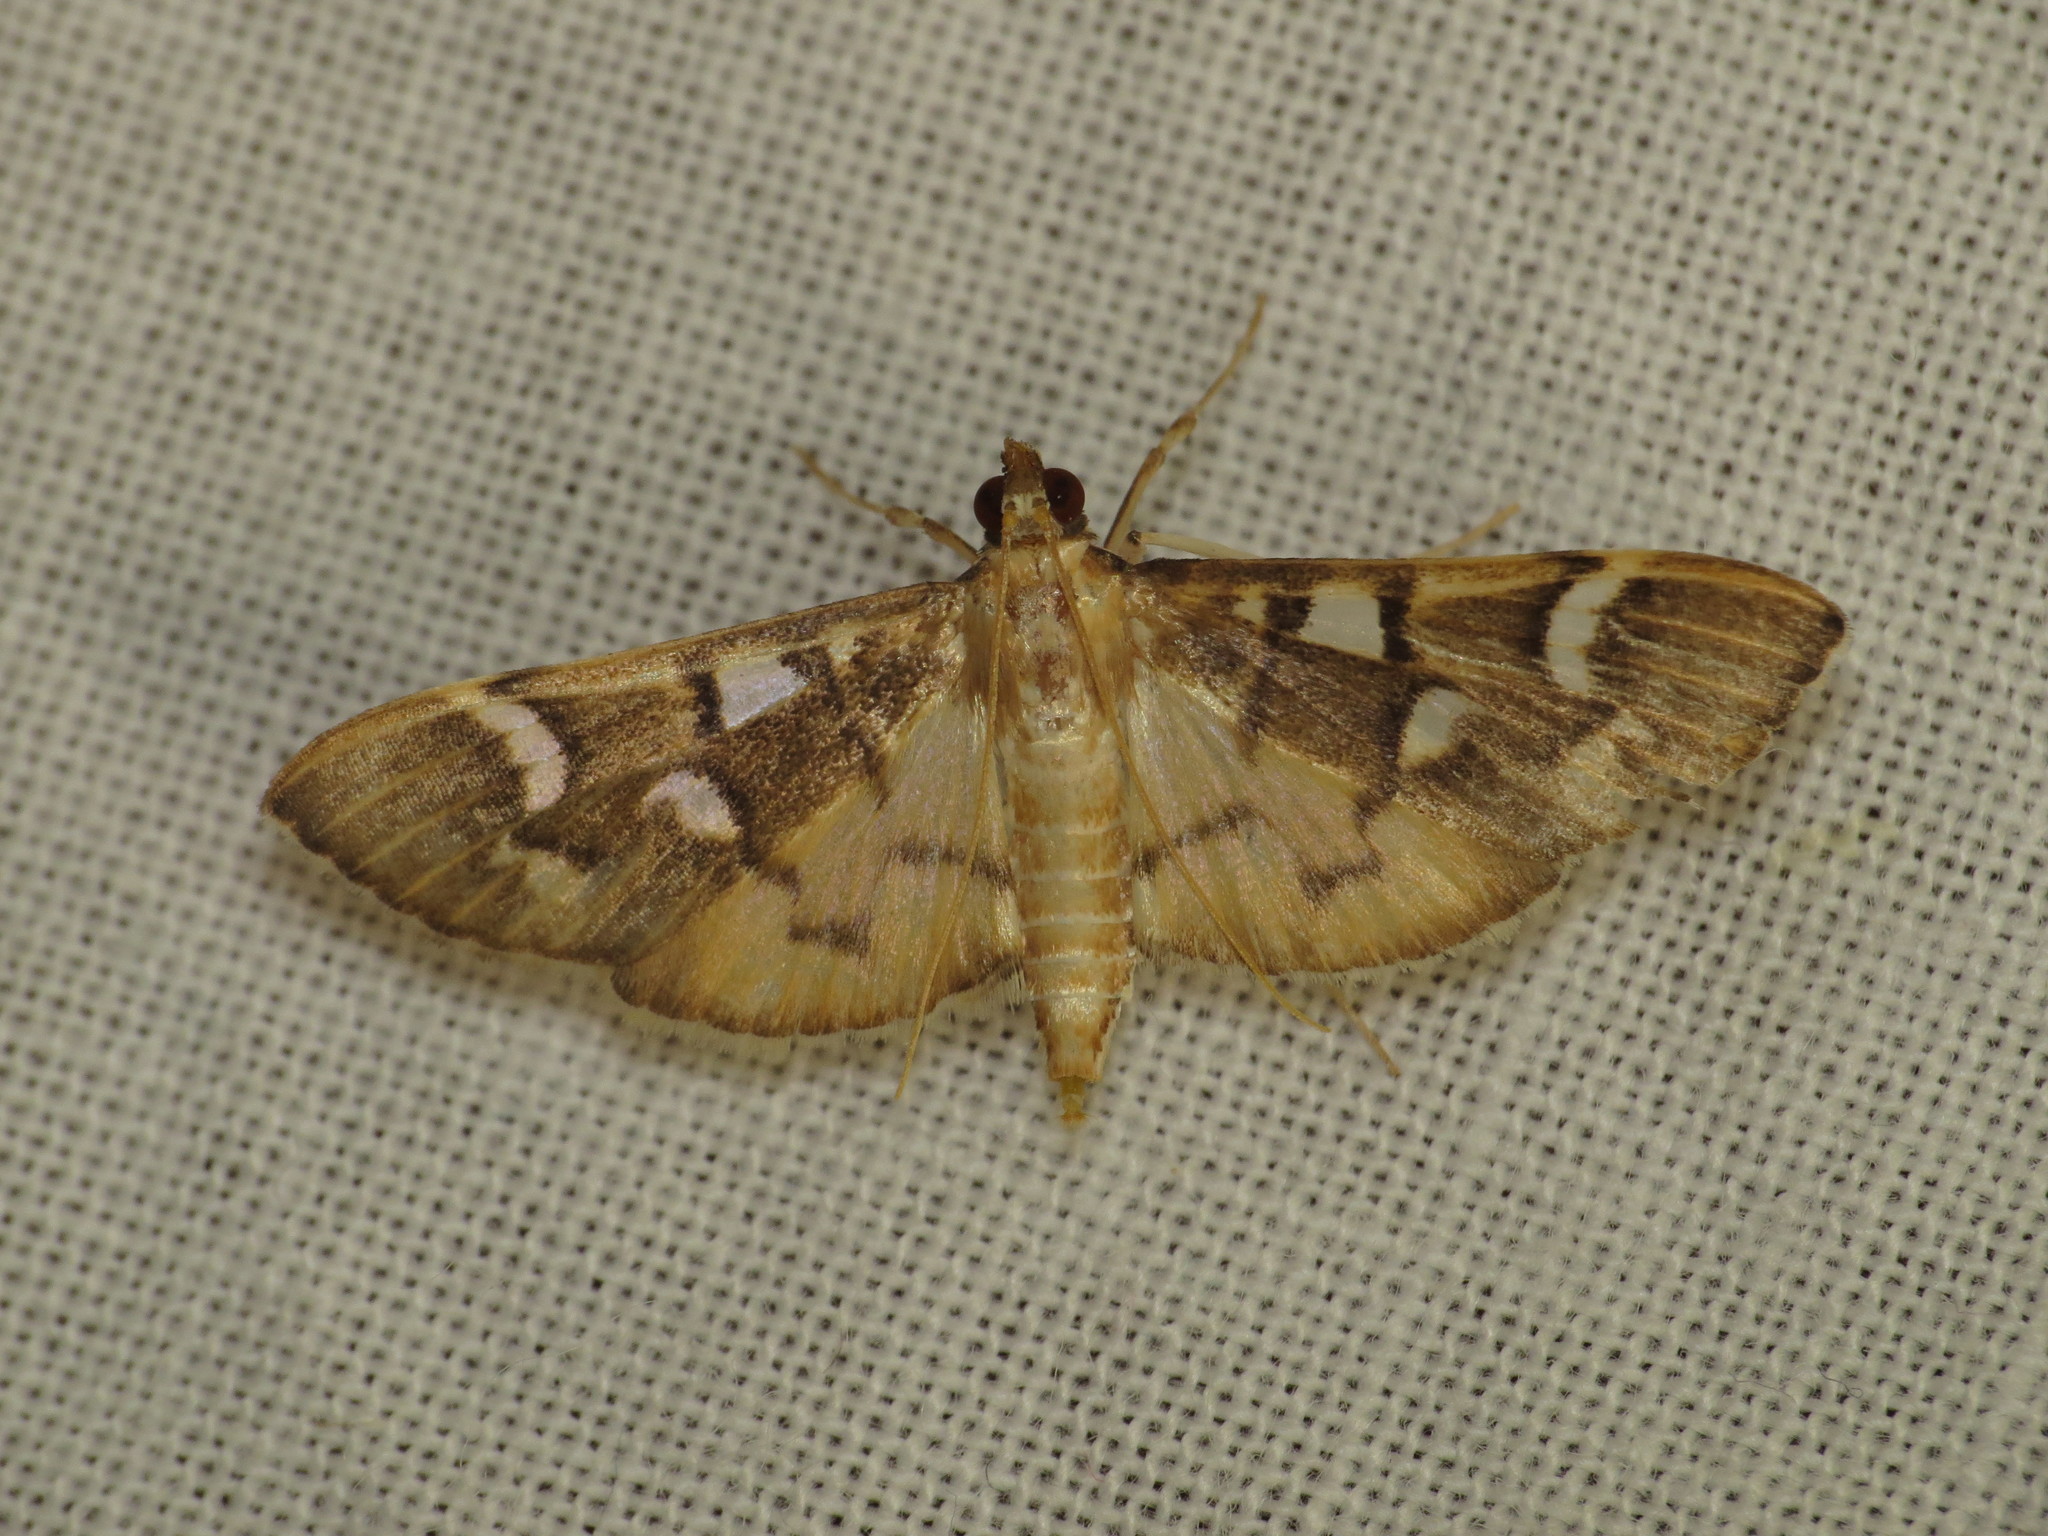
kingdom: Animalia
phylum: Arthropoda
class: Insecta
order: Lepidoptera
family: Crambidae
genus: Cotachena
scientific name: Cotachena histricalis
